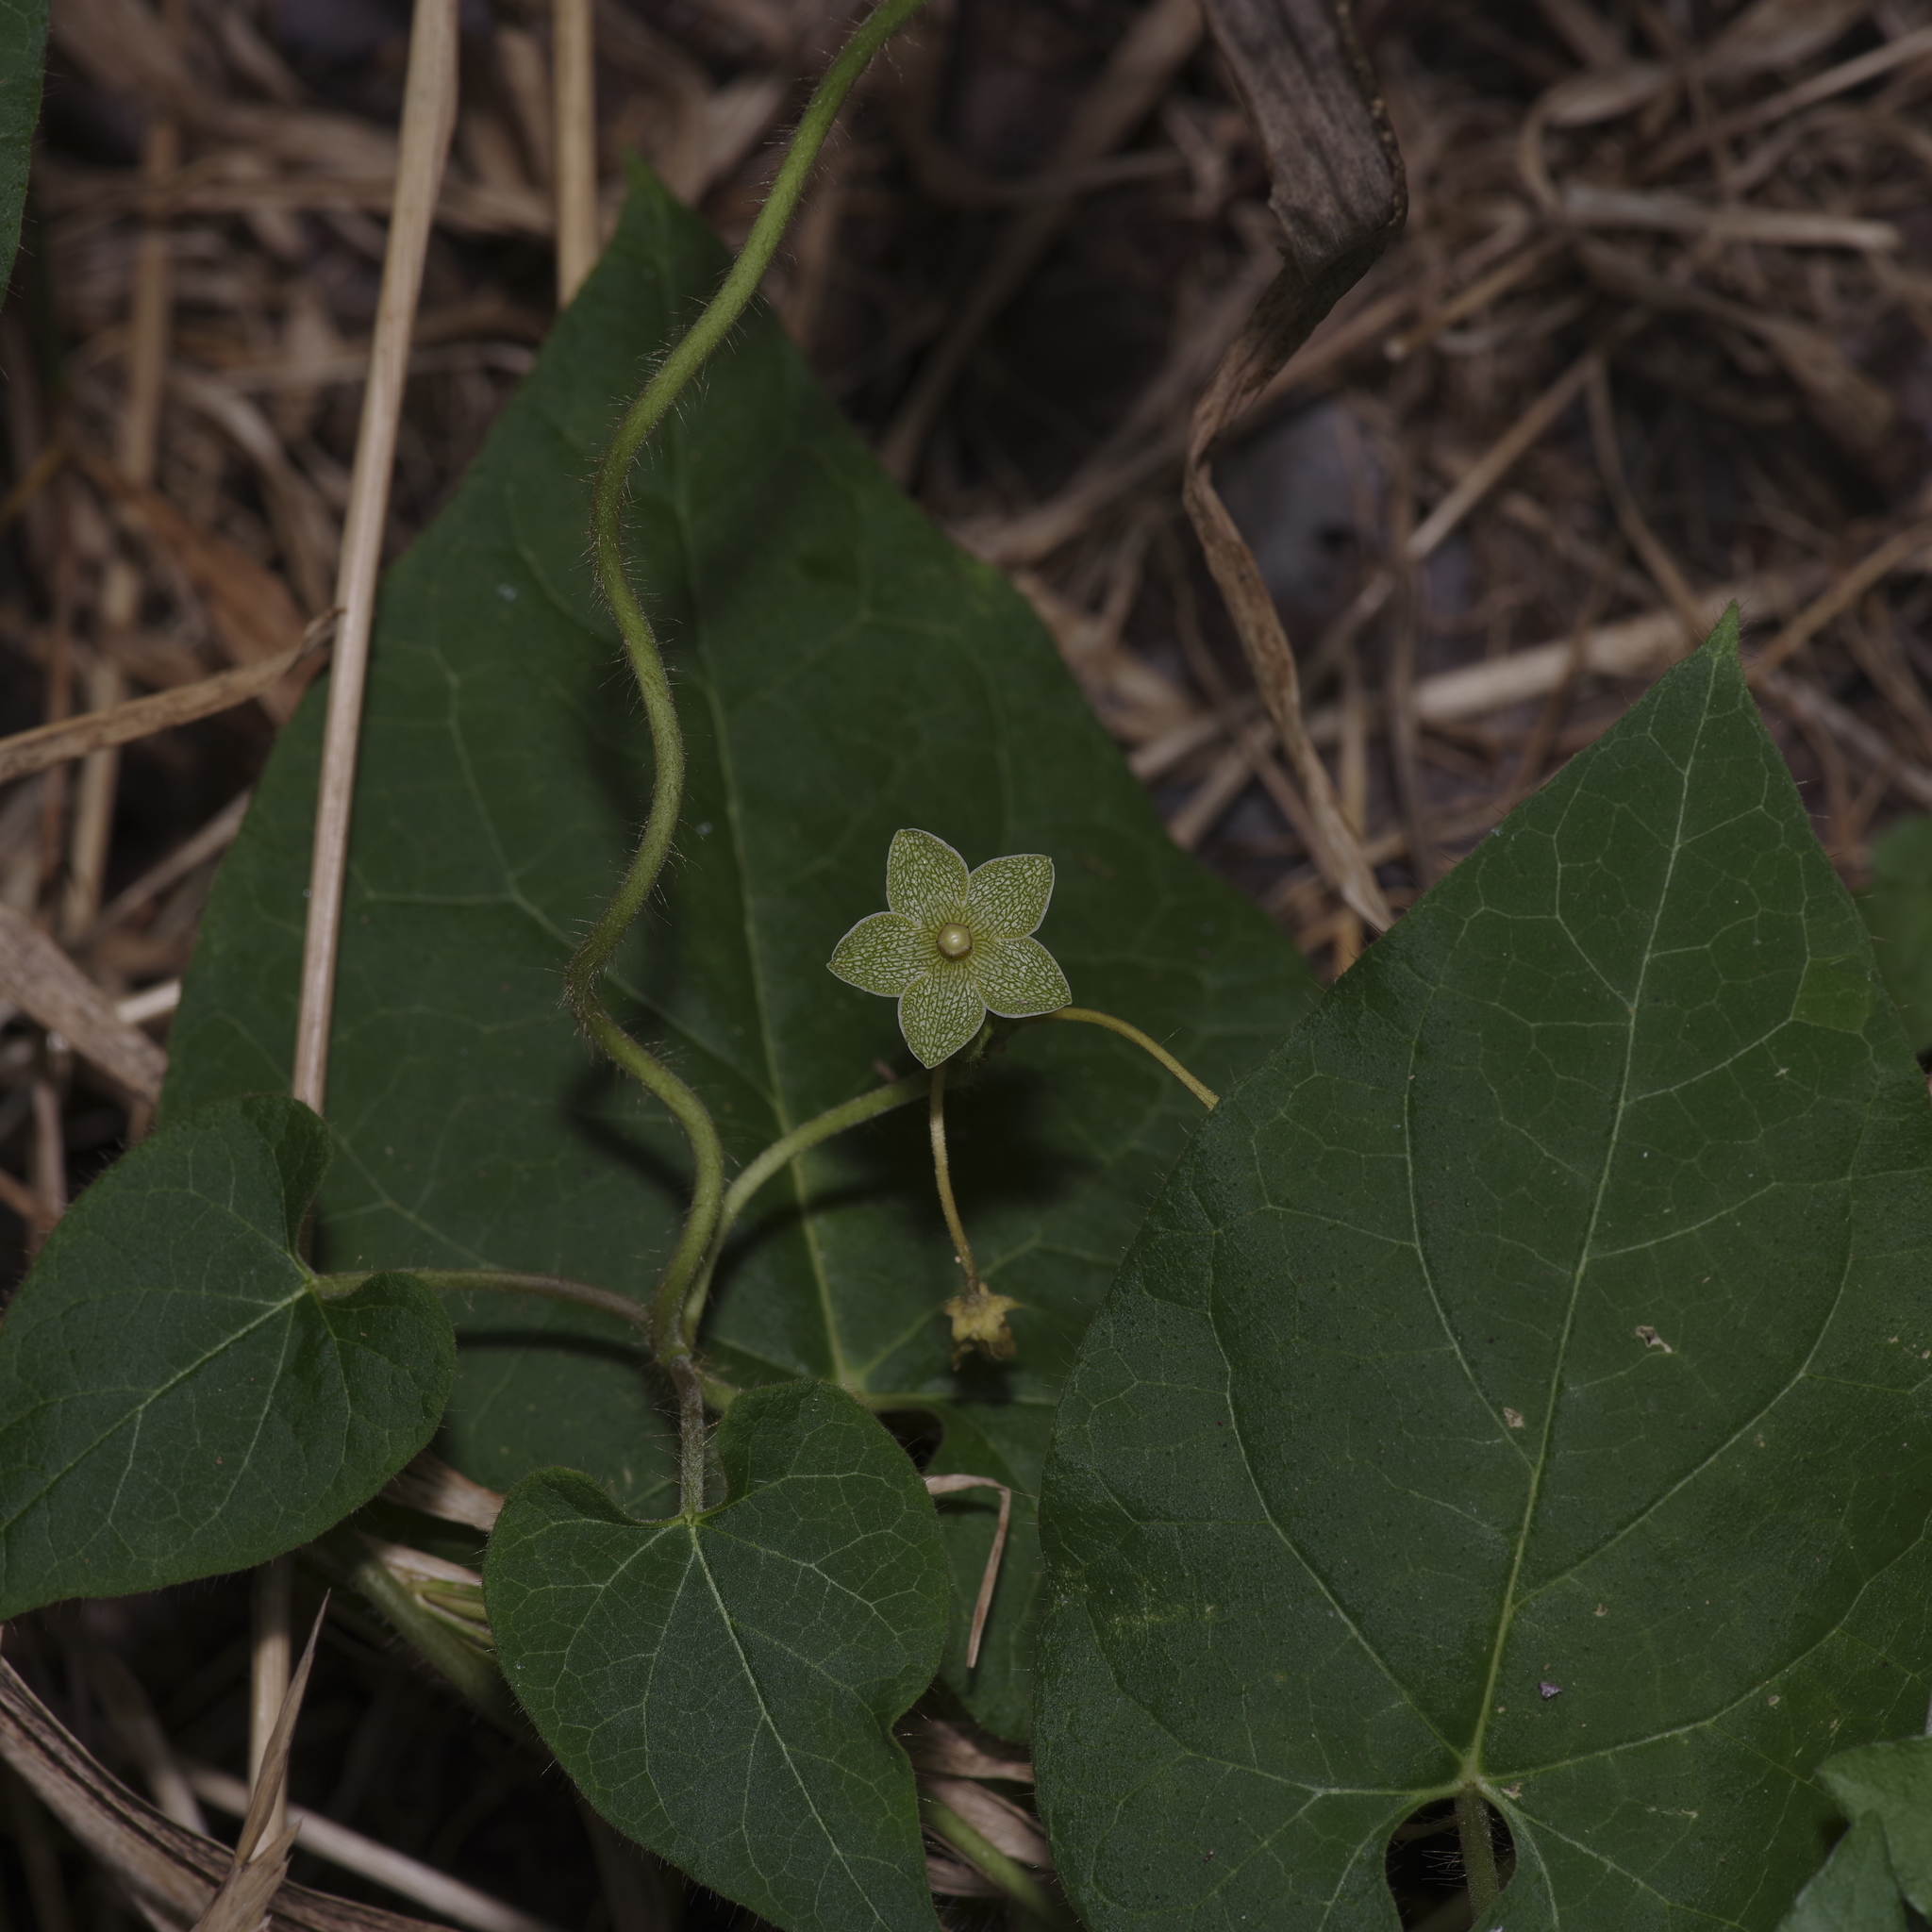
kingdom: Plantae
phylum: Tracheophyta
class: Magnoliopsida
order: Gentianales
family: Apocynaceae
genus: Dictyanthus
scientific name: Dictyanthus reticulatus
